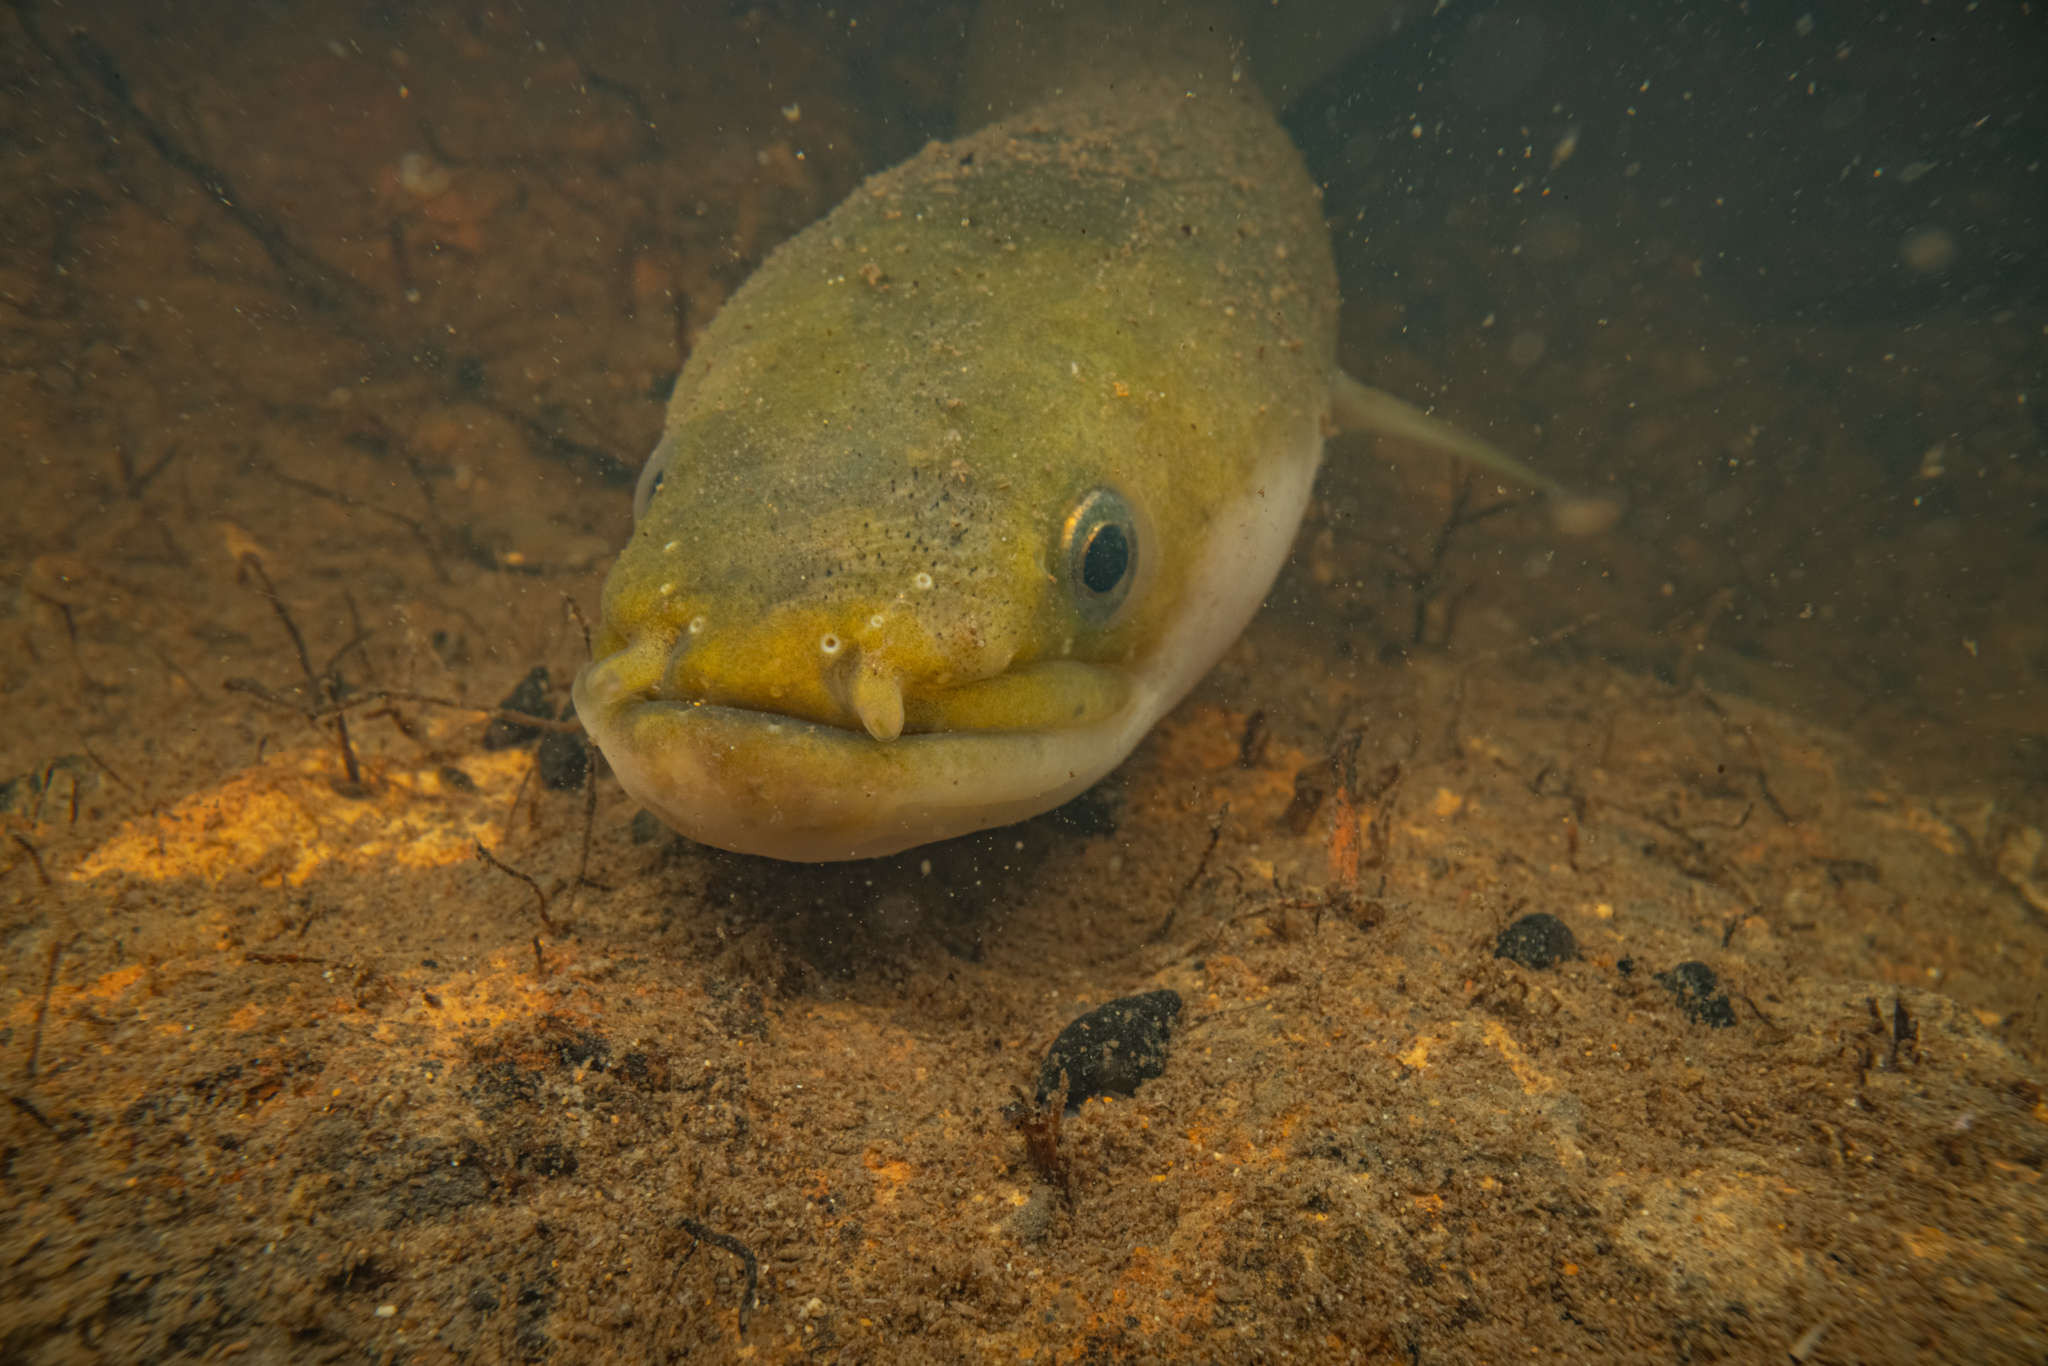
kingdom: Animalia
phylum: Chordata
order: Anguilliformes
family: Anguillidae
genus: Anguilla
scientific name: Anguilla australis
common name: Shortfin eel
